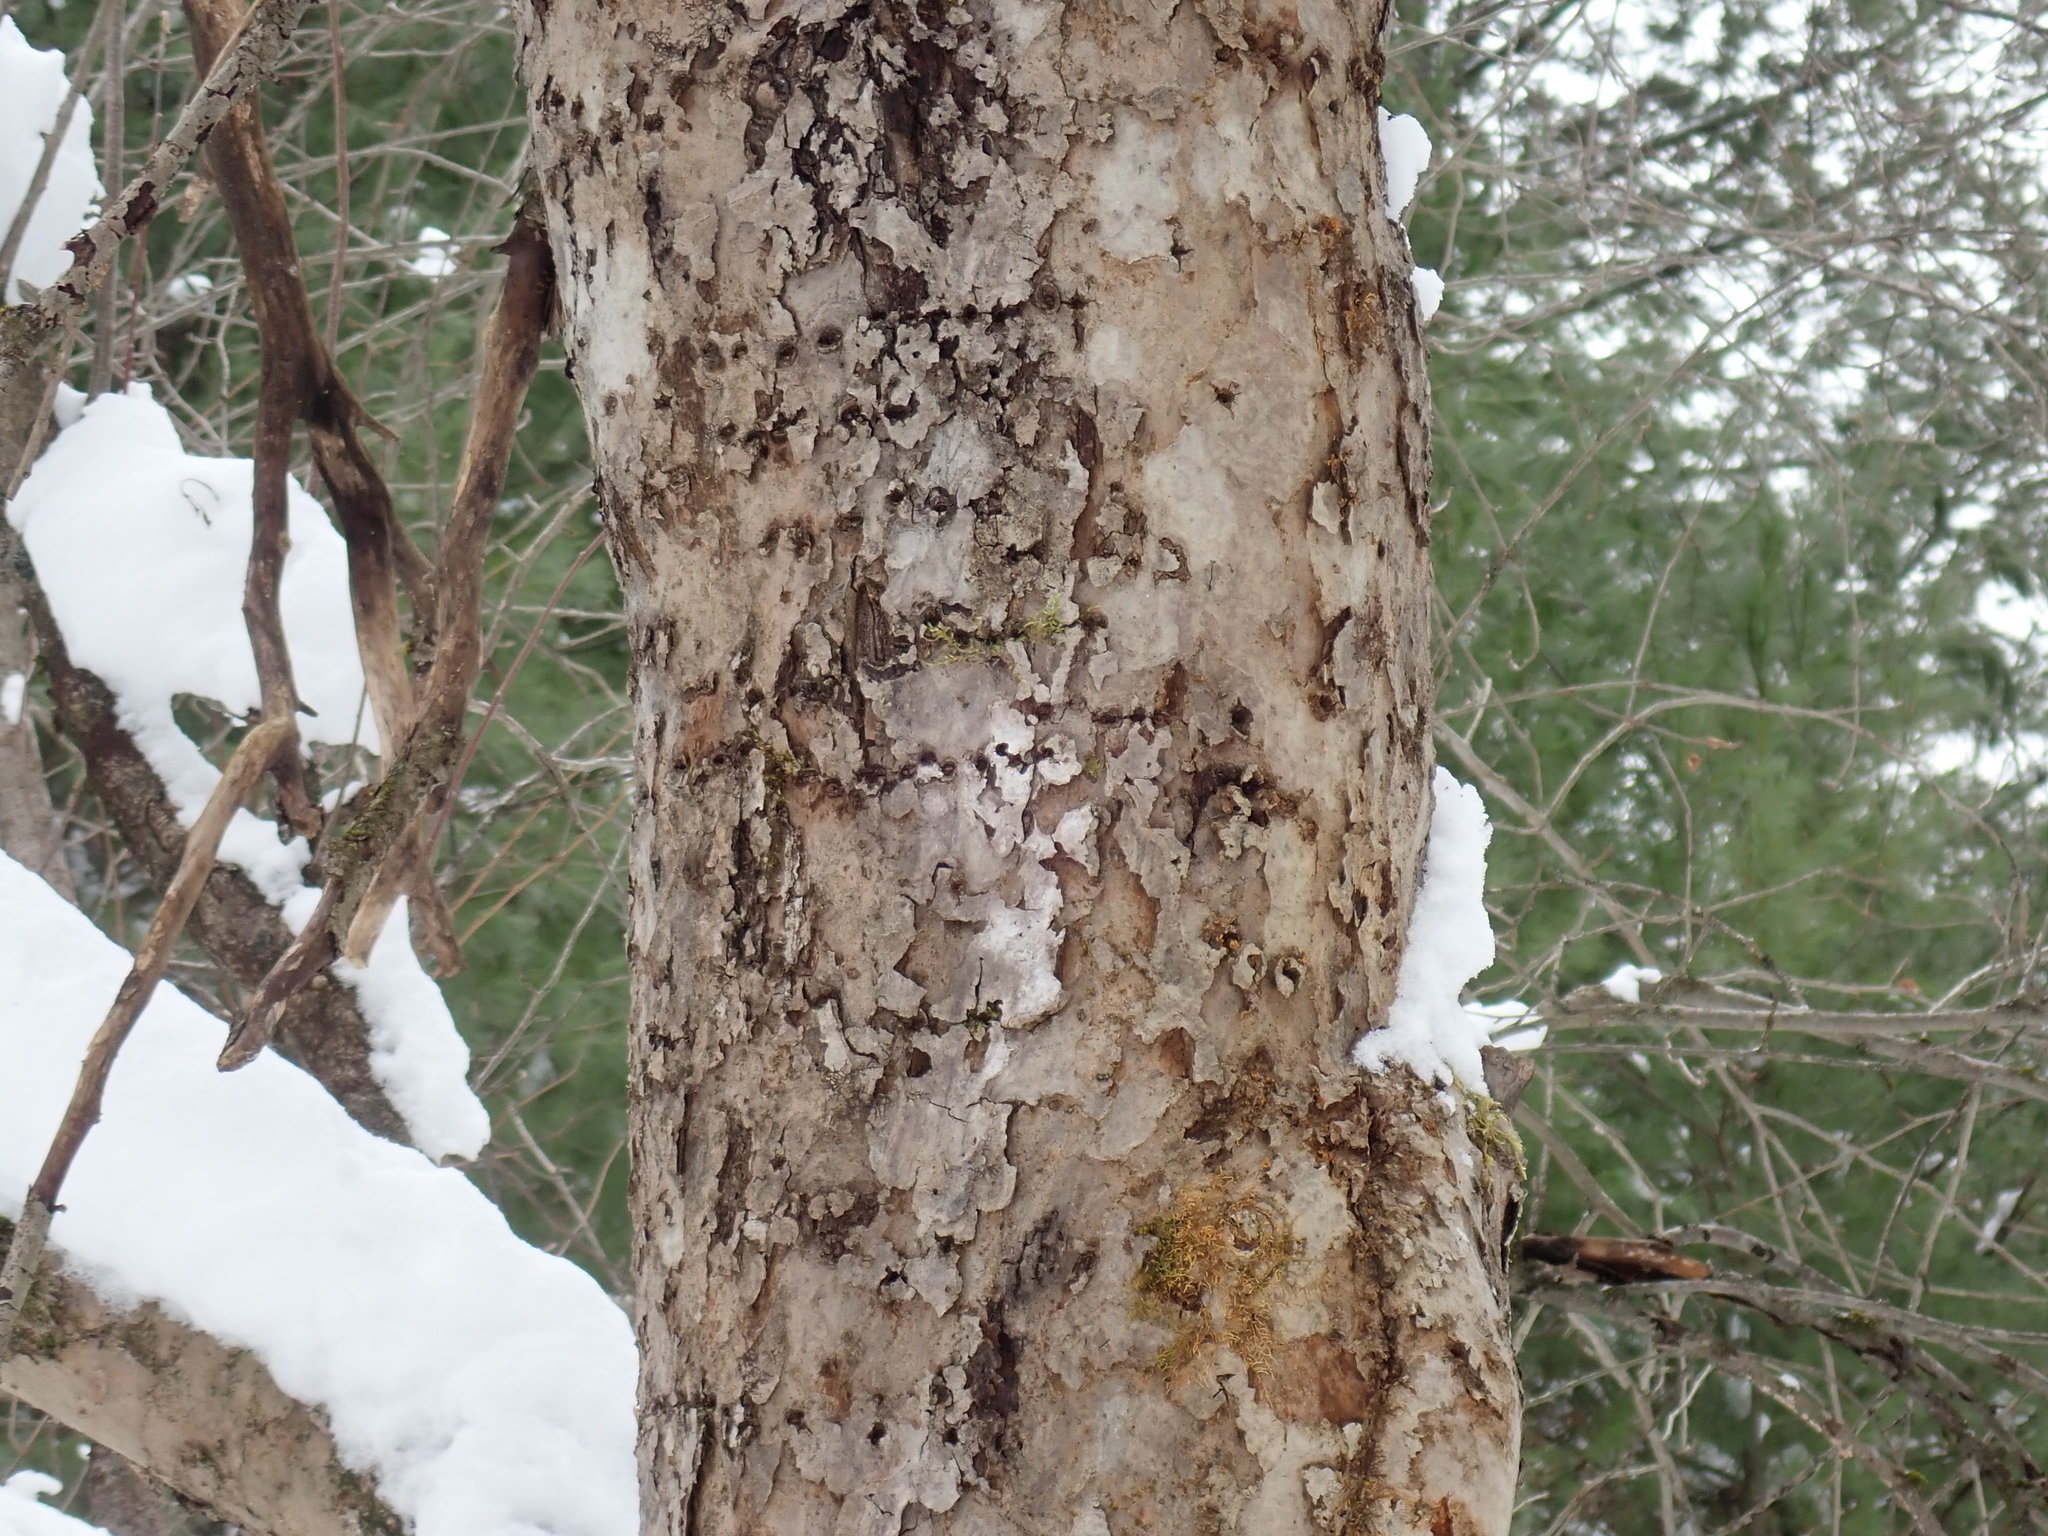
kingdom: Animalia
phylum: Chordata
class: Aves
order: Piciformes
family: Picidae
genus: Sphyrapicus
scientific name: Sphyrapicus varius
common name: Yellow-bellied sapsucker
